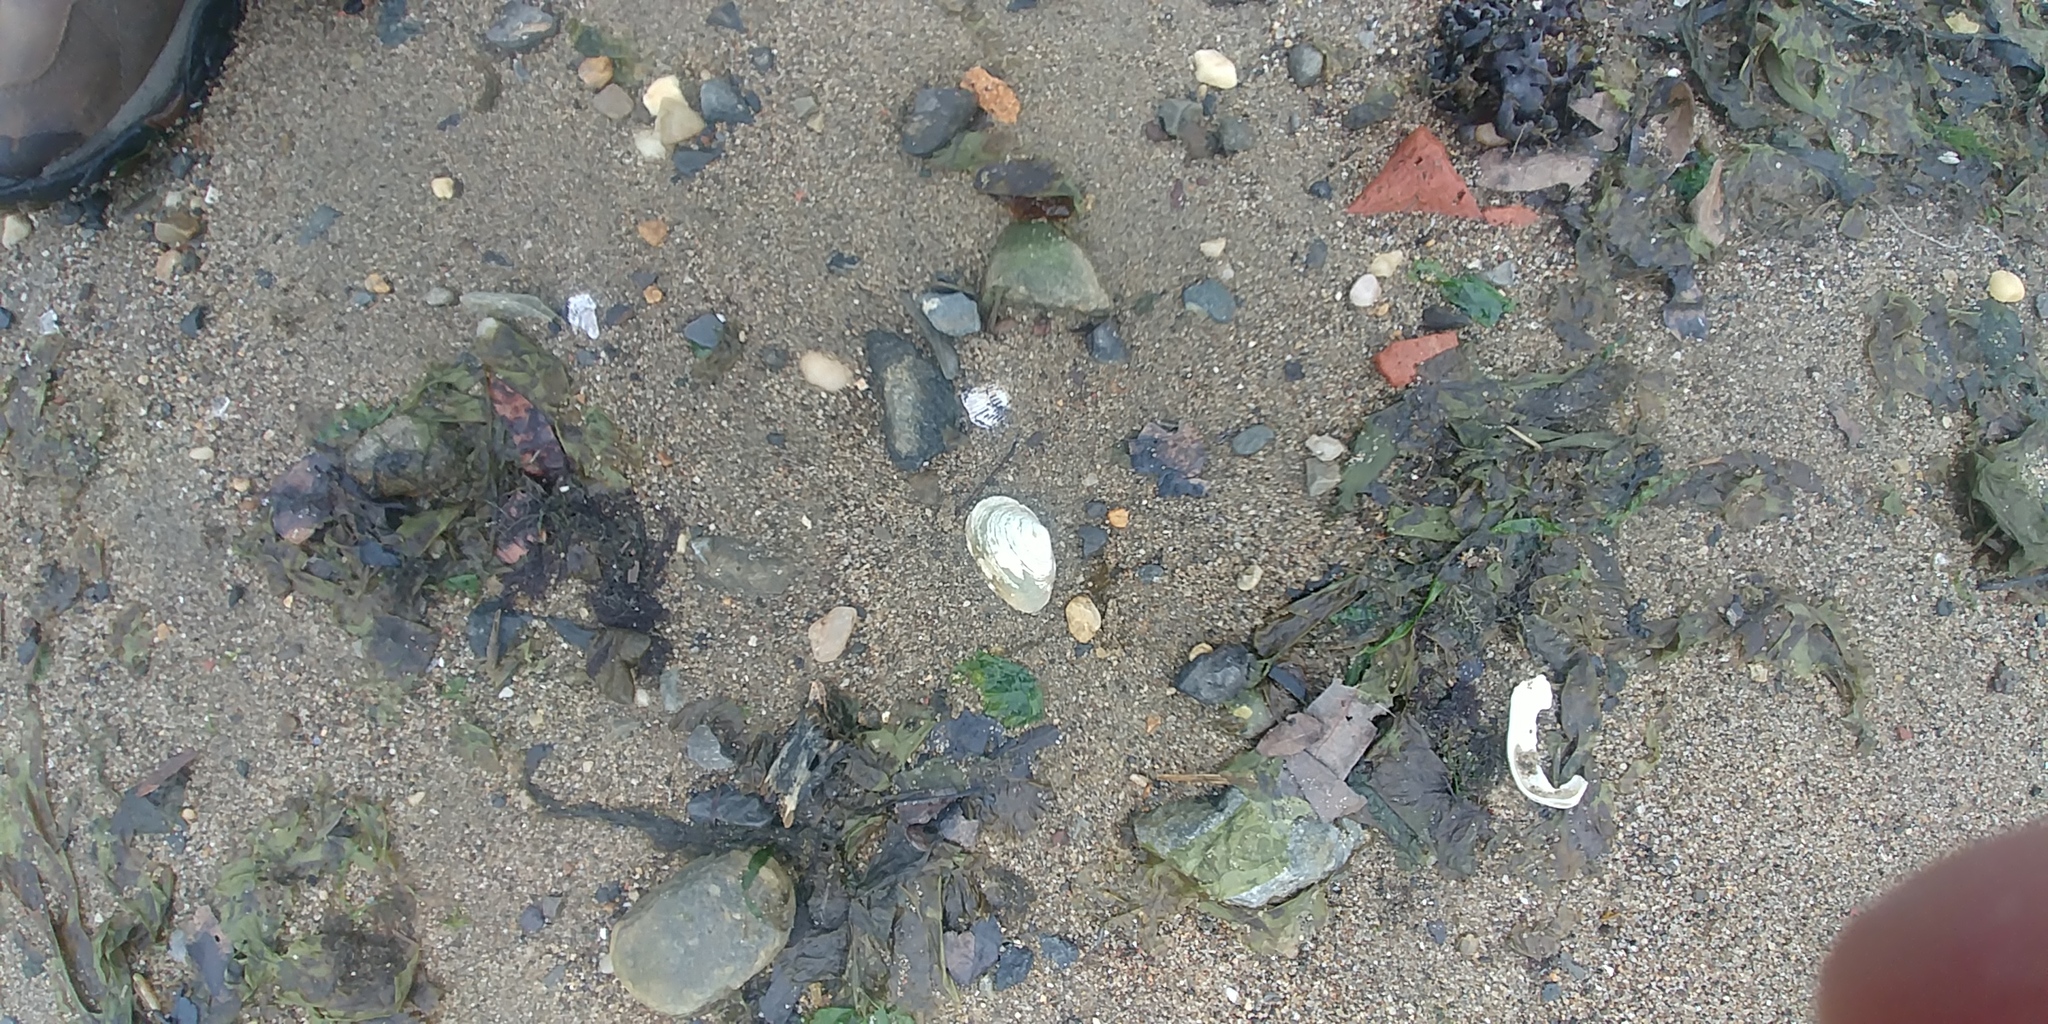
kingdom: Animalia
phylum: Mollusca
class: Bivalvia
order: Myida
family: Myidae
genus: Mya
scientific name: Mya arenaria
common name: Soft-shelled clam
